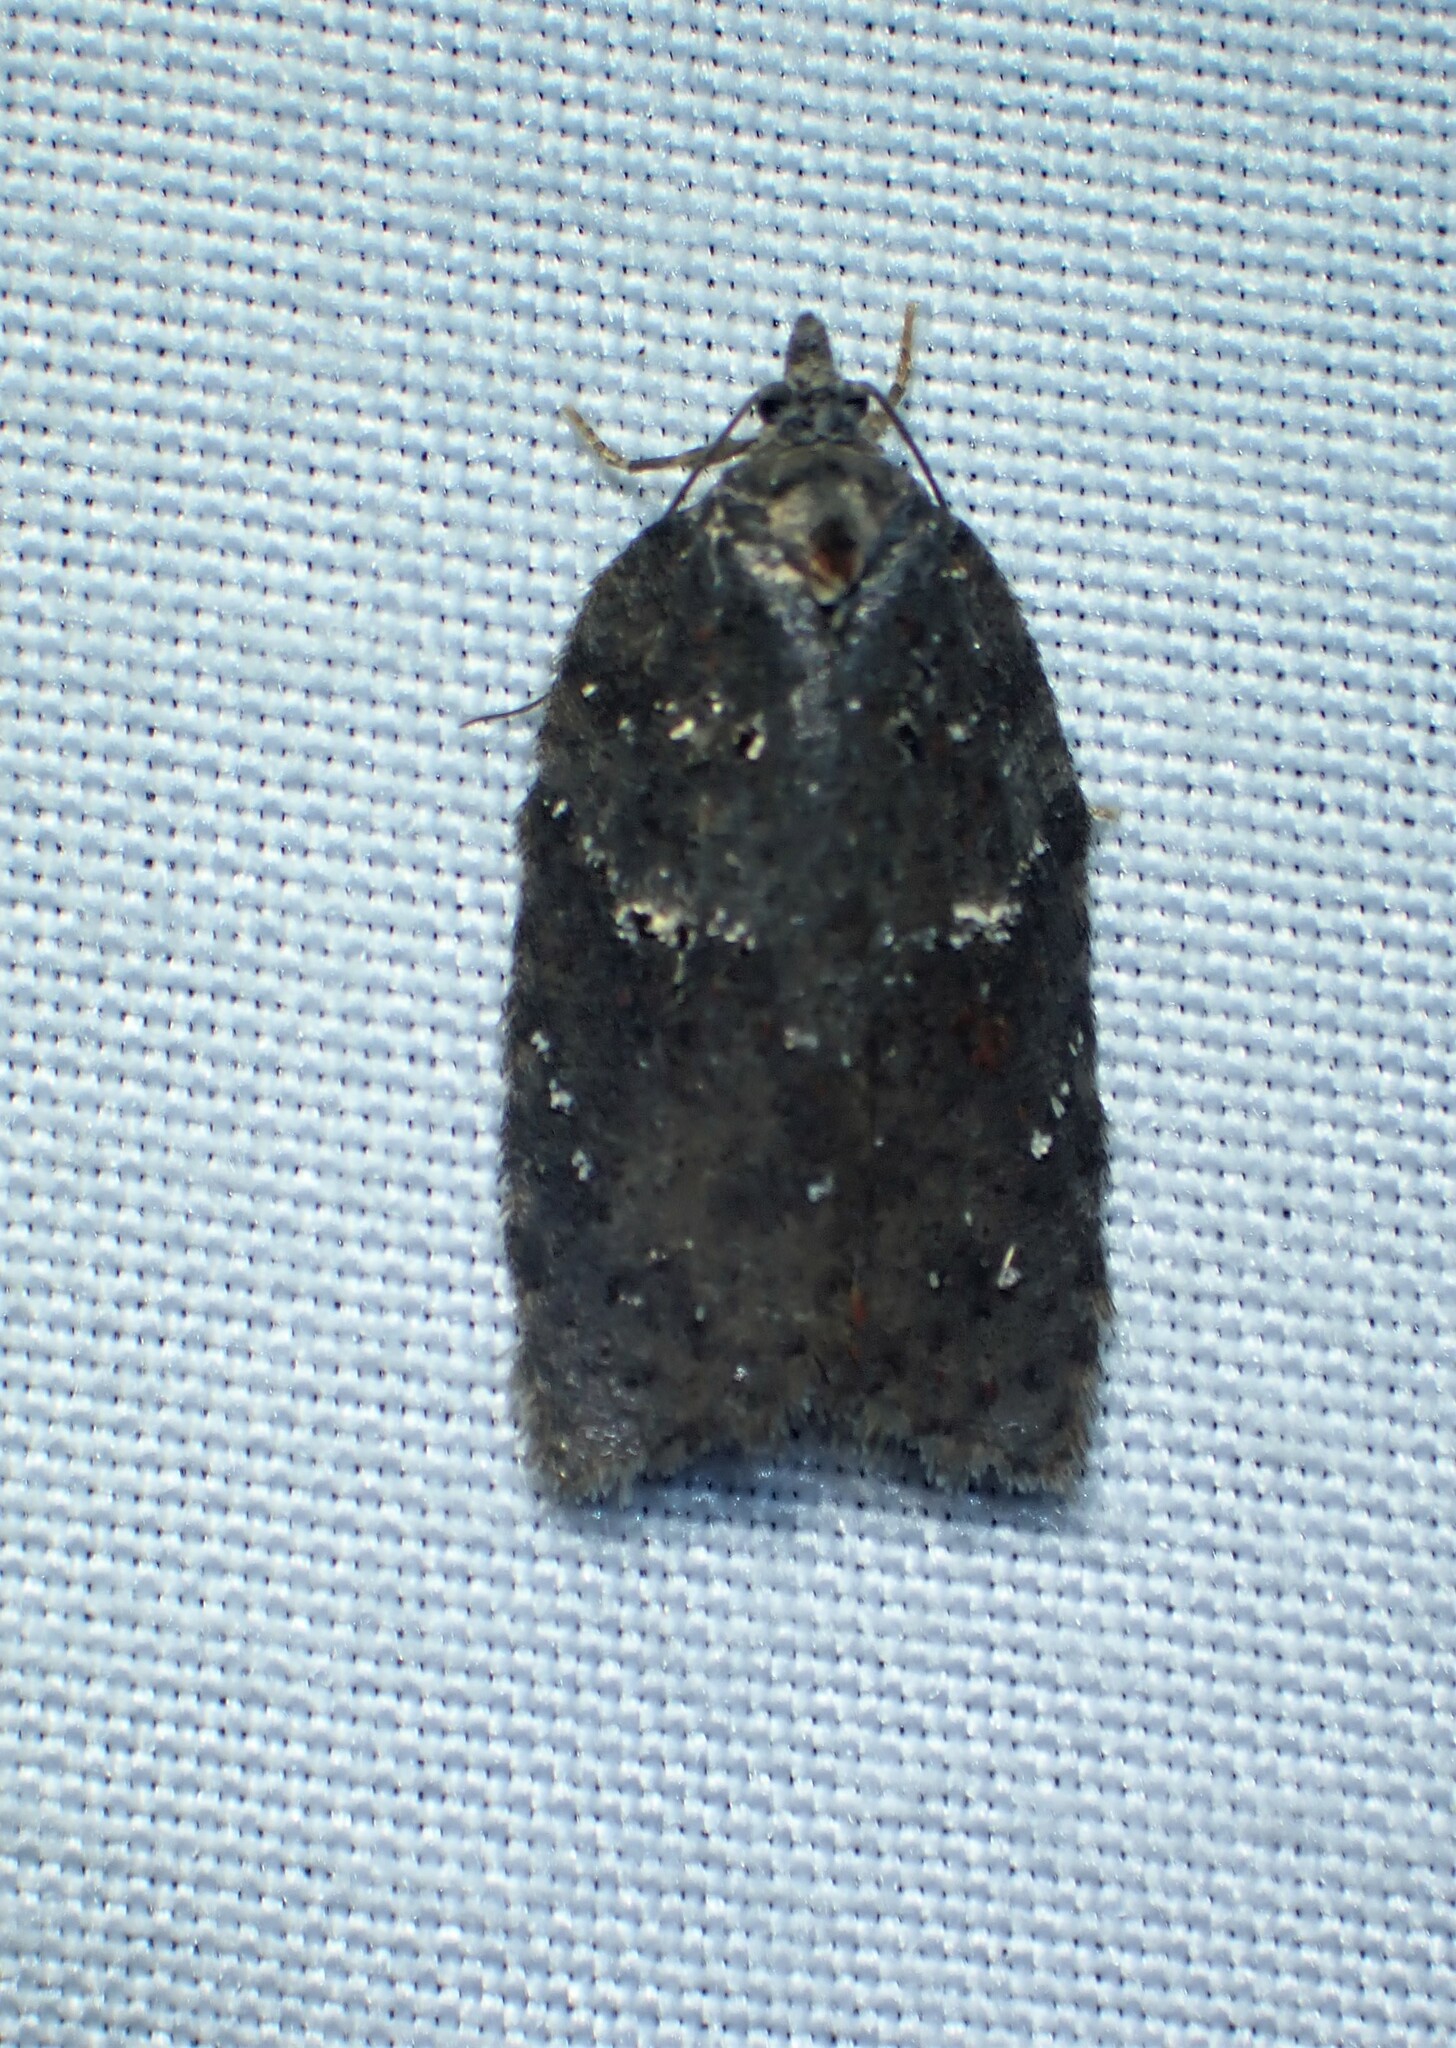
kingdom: Animalia
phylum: Arthropoda
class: Insecta
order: Lepidoptera
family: Tortricidae
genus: Acleris
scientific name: Acleris caliginosana
